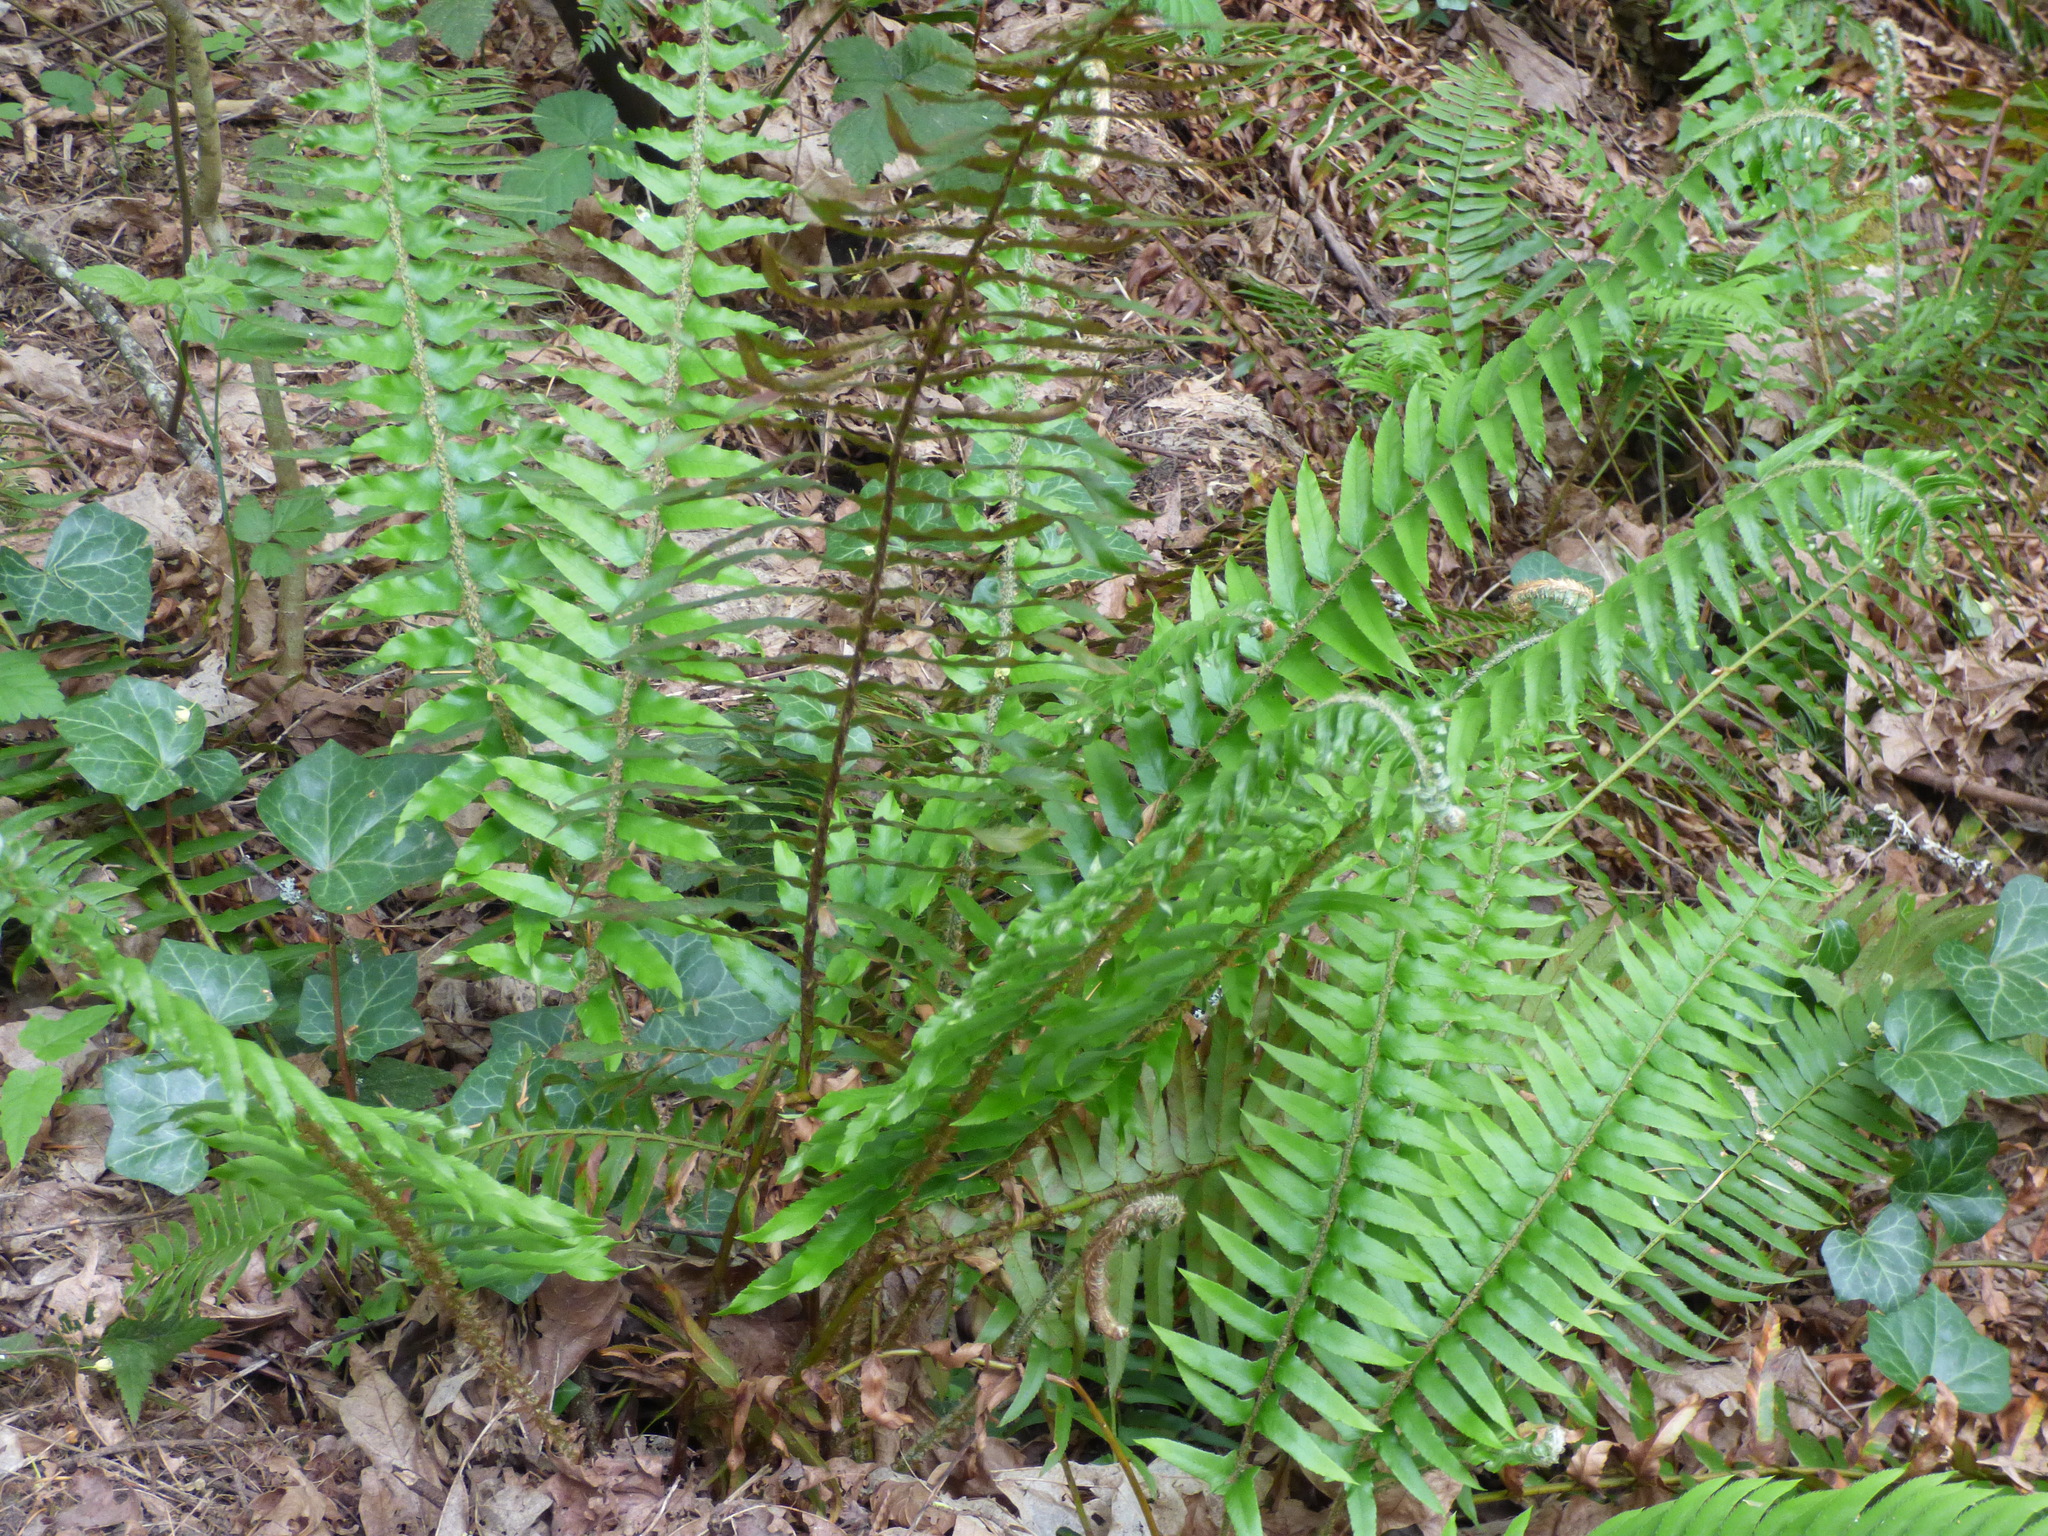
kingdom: Plantae
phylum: Tracheophyta
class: Polypodiopsida
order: Polypodiales
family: Dryopteridaceae
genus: Polystichum
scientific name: Polystichum munitum
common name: Western sword-fern
